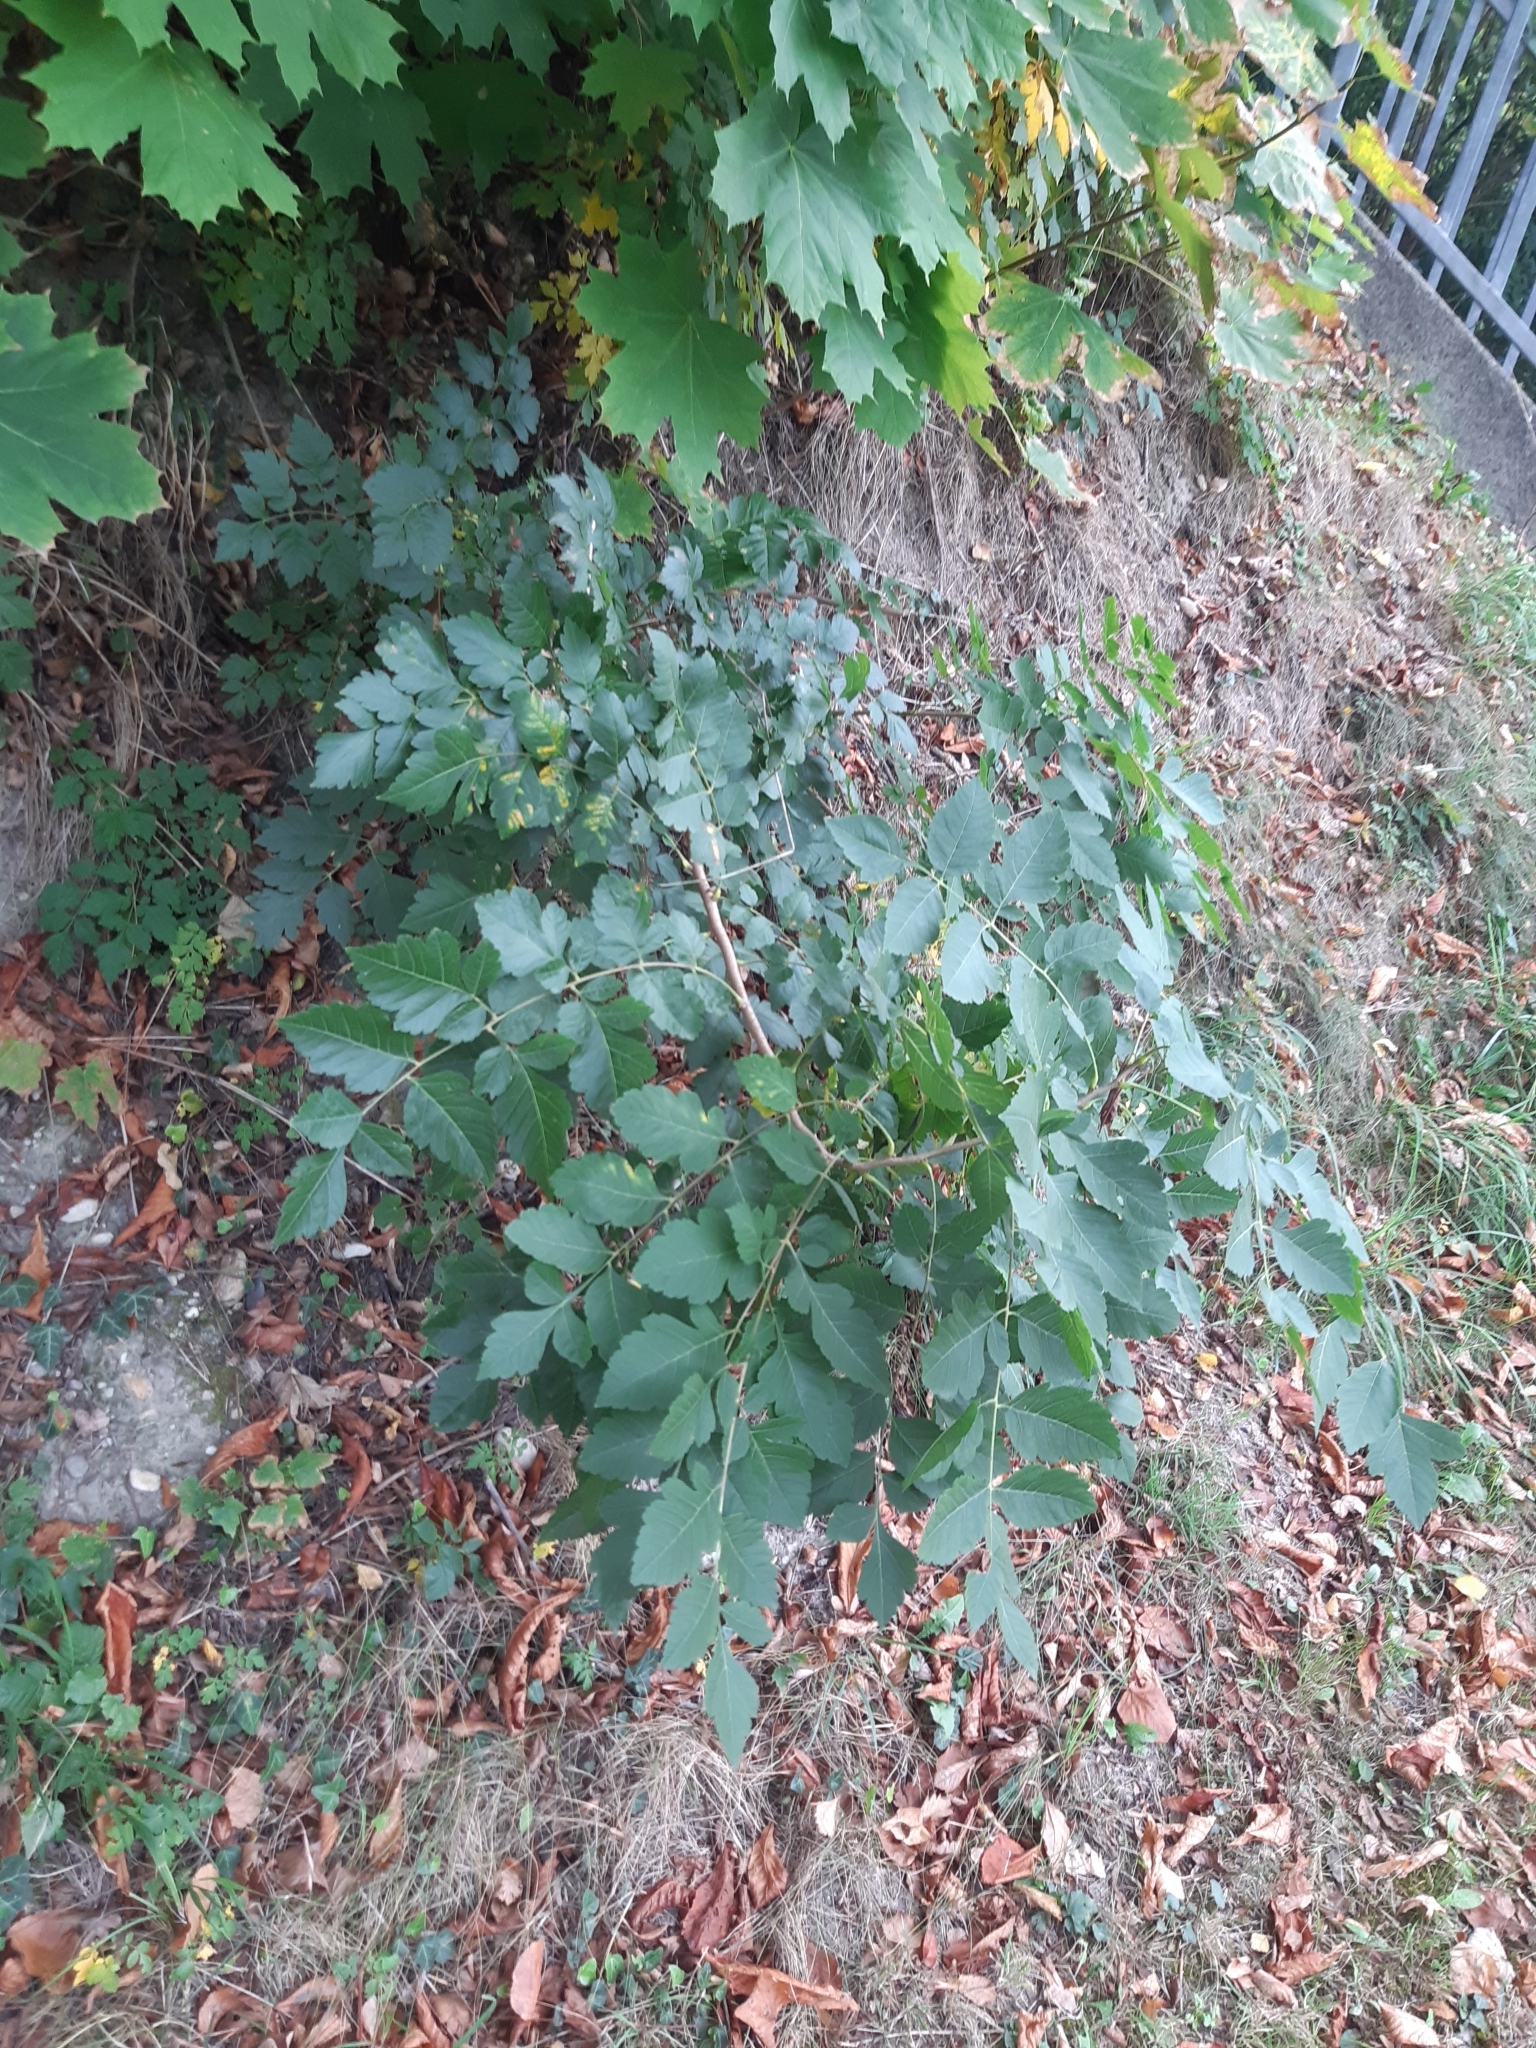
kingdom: Plantae
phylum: Tracheophyta
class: Magnoliopsida
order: Sapindales
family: Sapindaceae
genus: Koelreuteria
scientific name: Koelreuteria paniculata
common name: Pride-of-india
